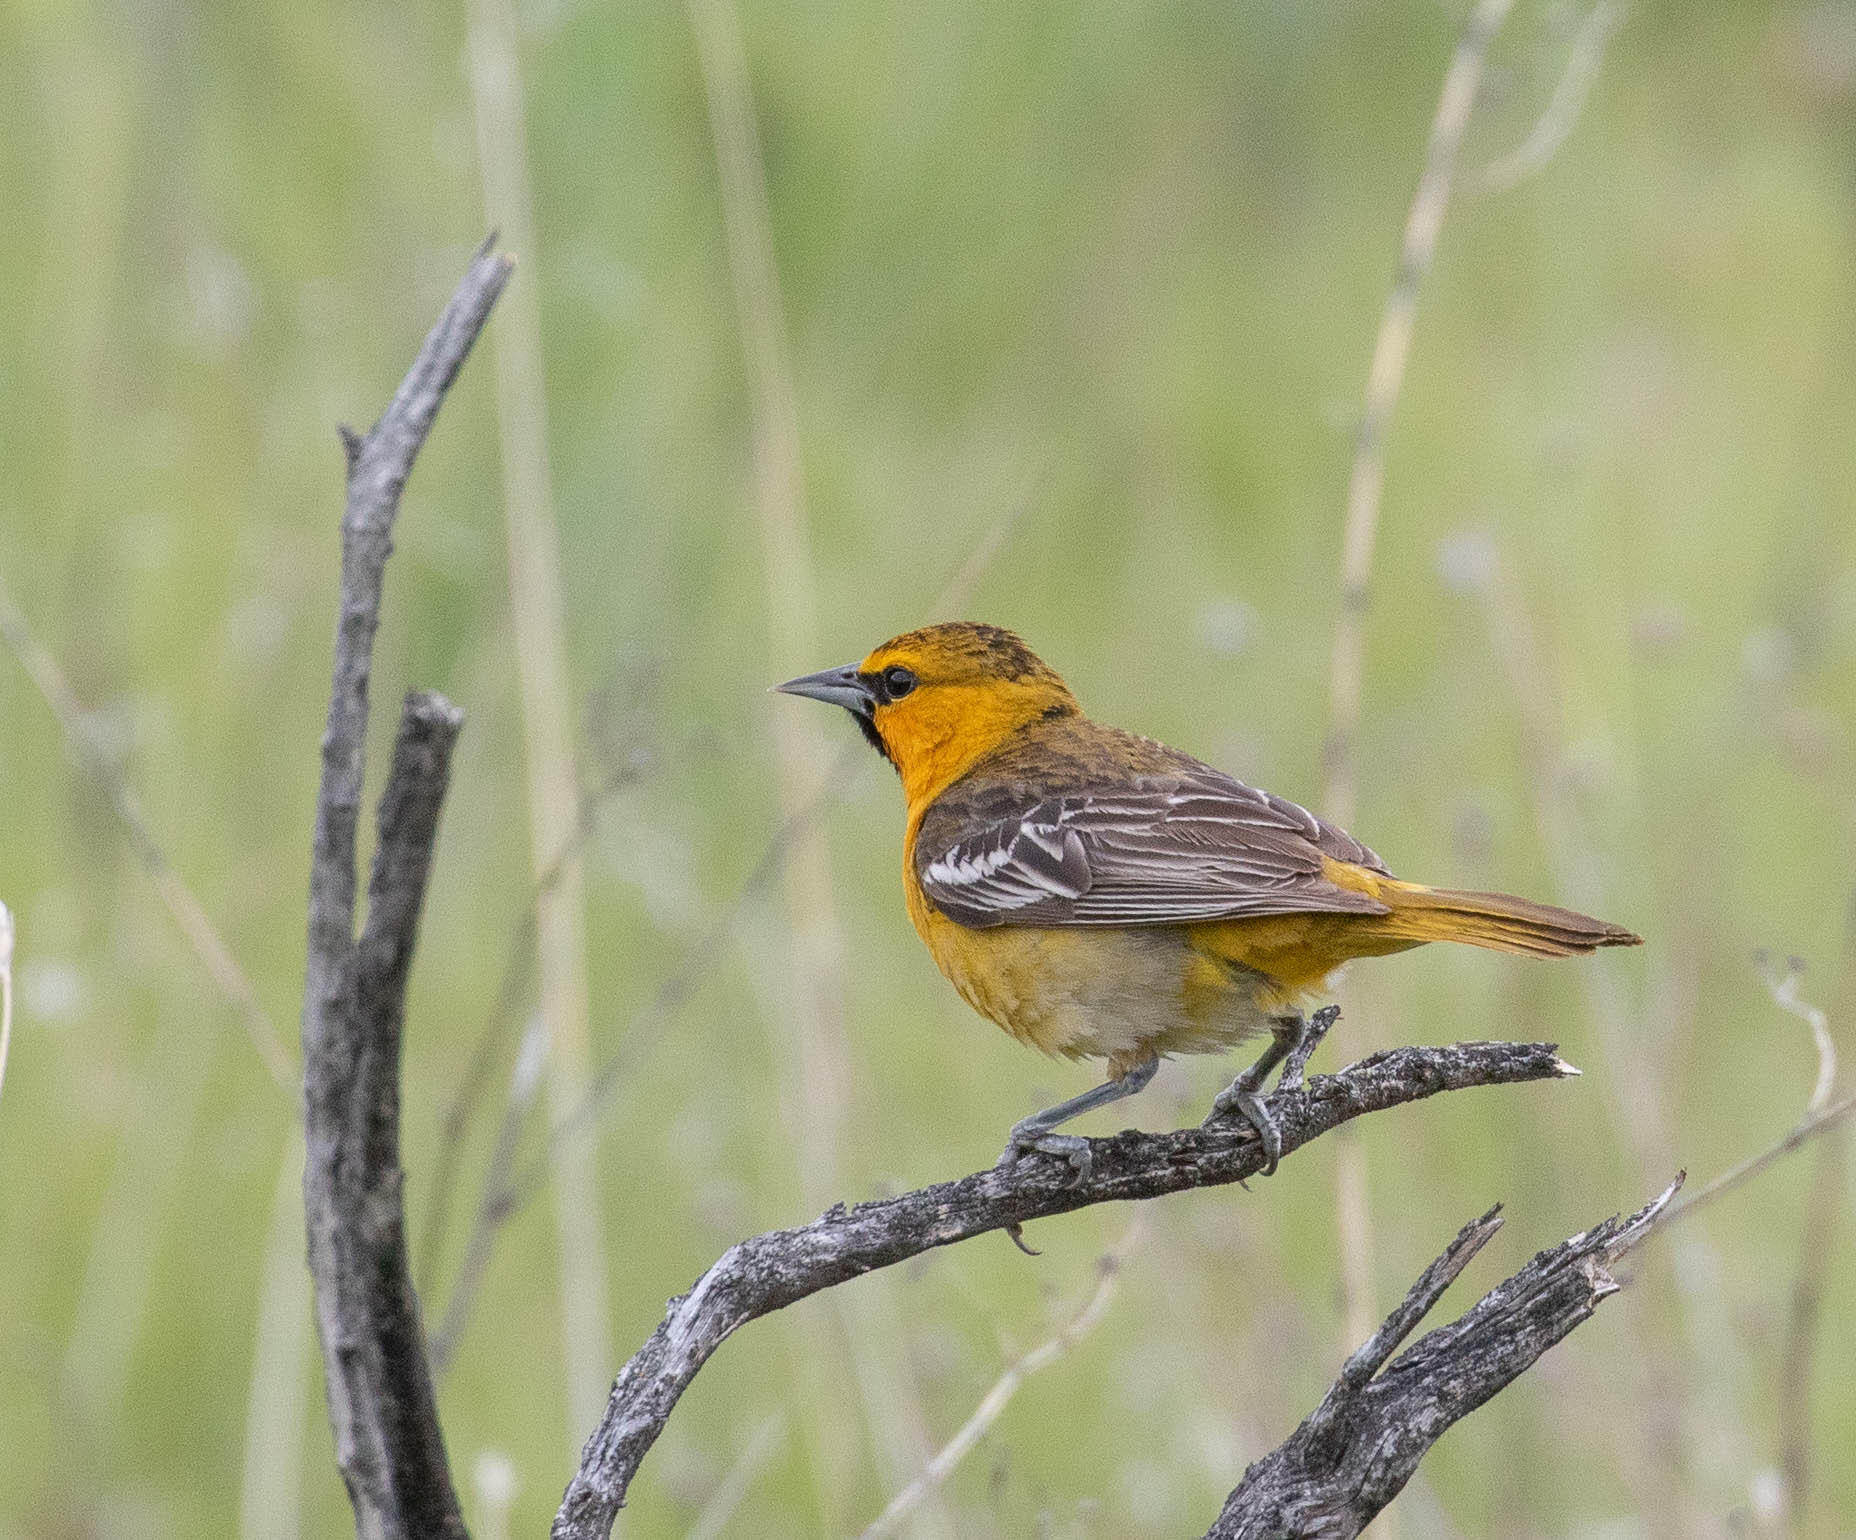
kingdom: Animalia
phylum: Chordata
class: Aves
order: Passeriformes
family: Icteridae
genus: Icterus
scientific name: Icterus bullockii
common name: Bullock's oriole
